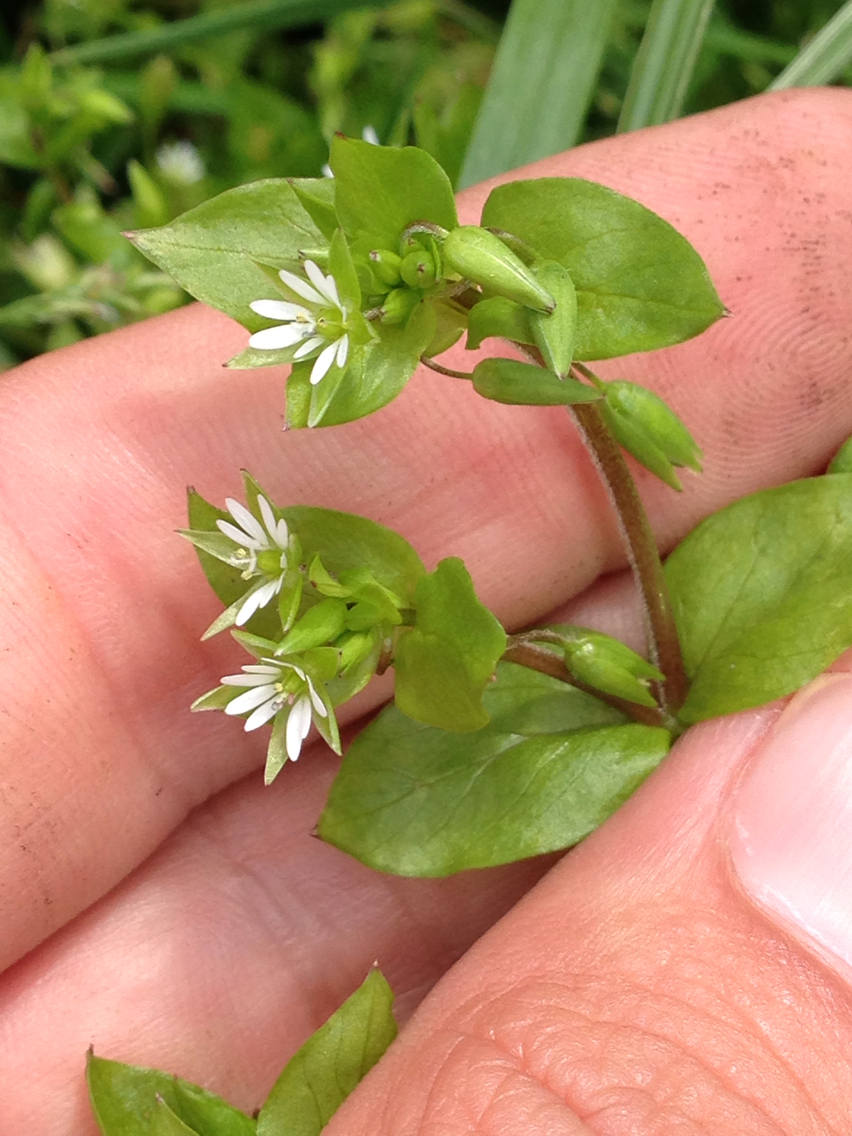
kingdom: Plantae
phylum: Tracheophyta
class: Magnoliopsida
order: Caryophyllales
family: Caryophyllaceae
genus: Stellaria
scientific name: Stellaria media
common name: Common chickweed
